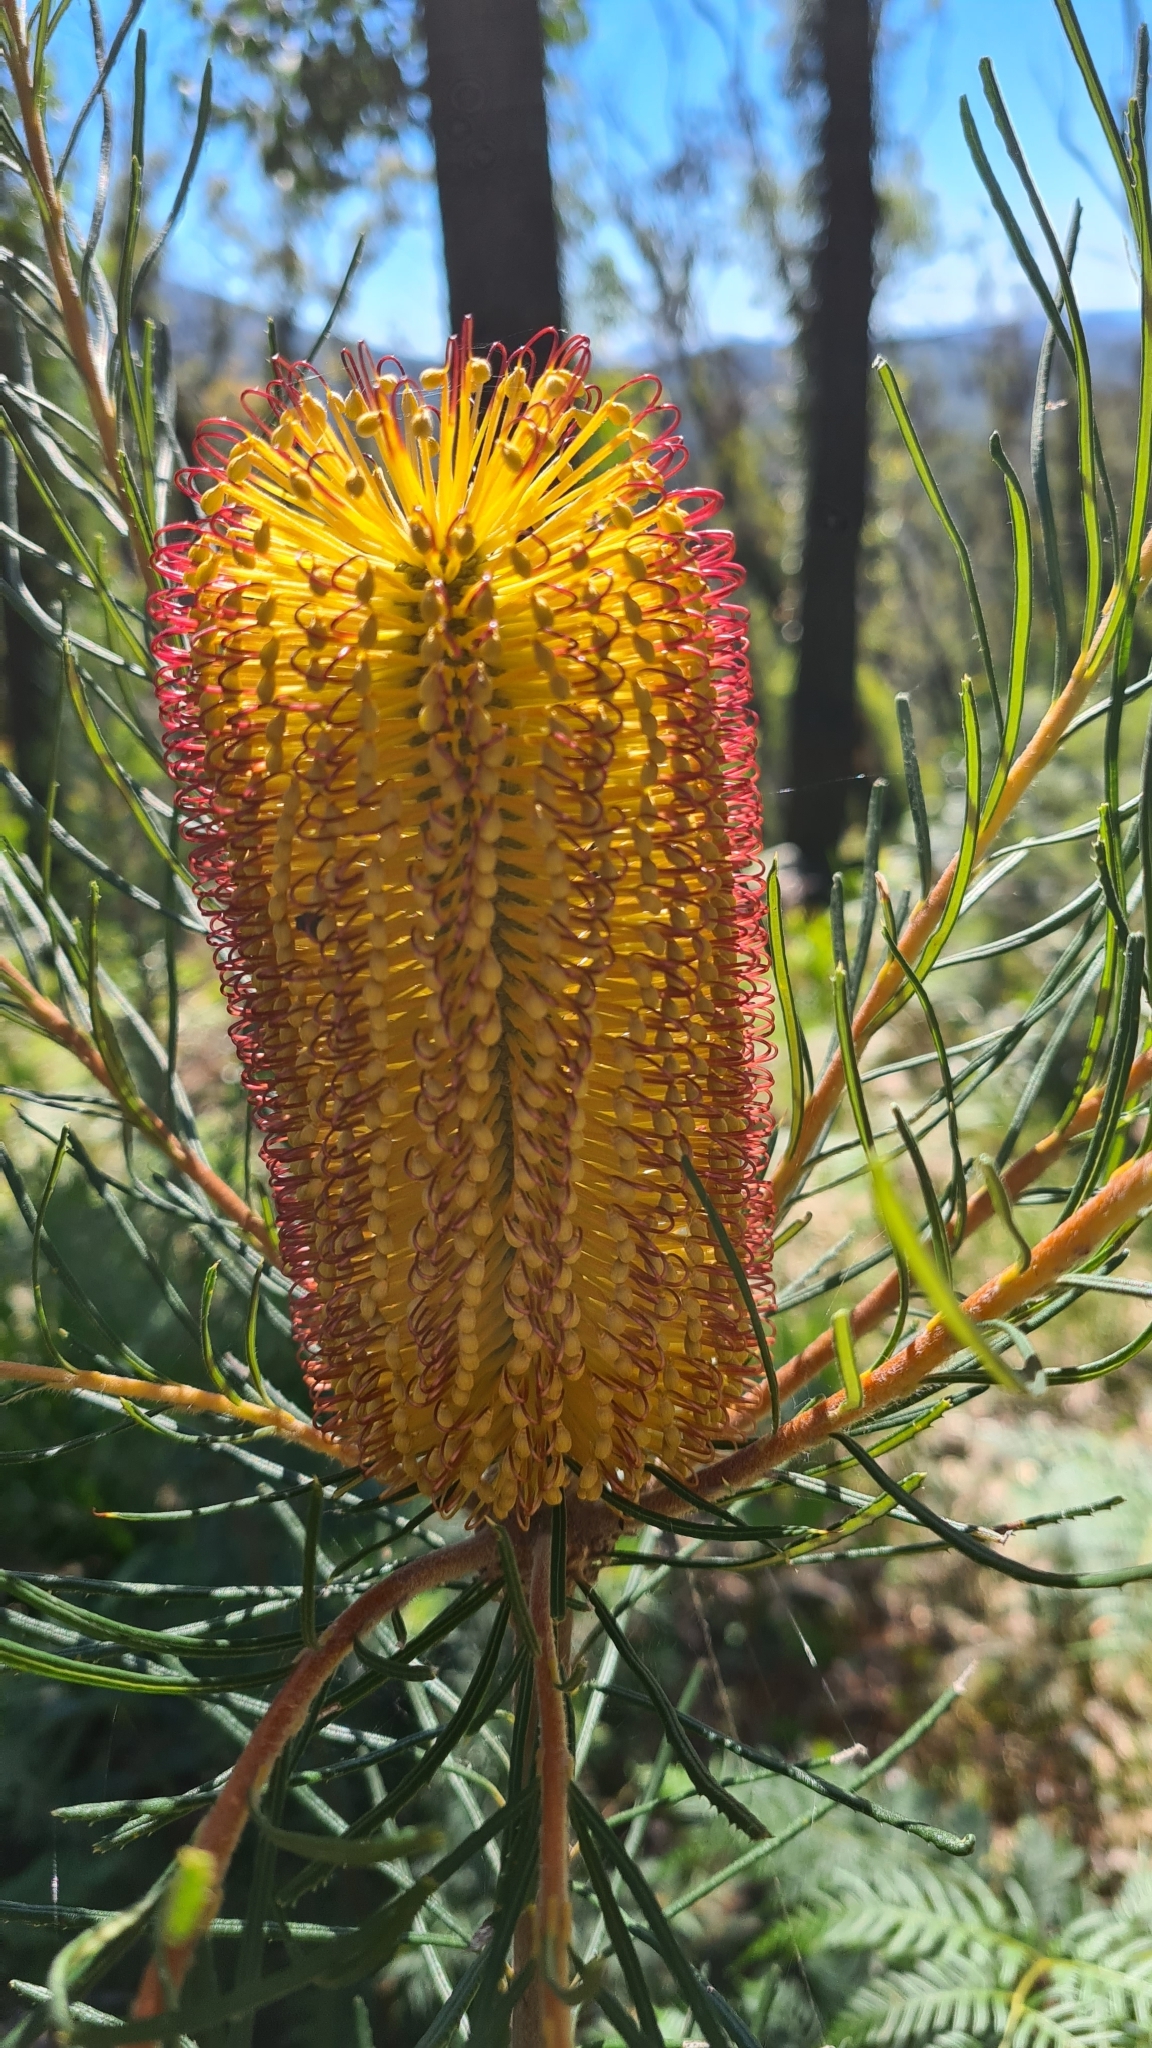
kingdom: Plantae
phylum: Tracheophyta
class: Magnoliopsida
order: Proteales
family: Proteaceae
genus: Banksia
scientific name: Banksia spinulosa
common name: Hairpin banksia
